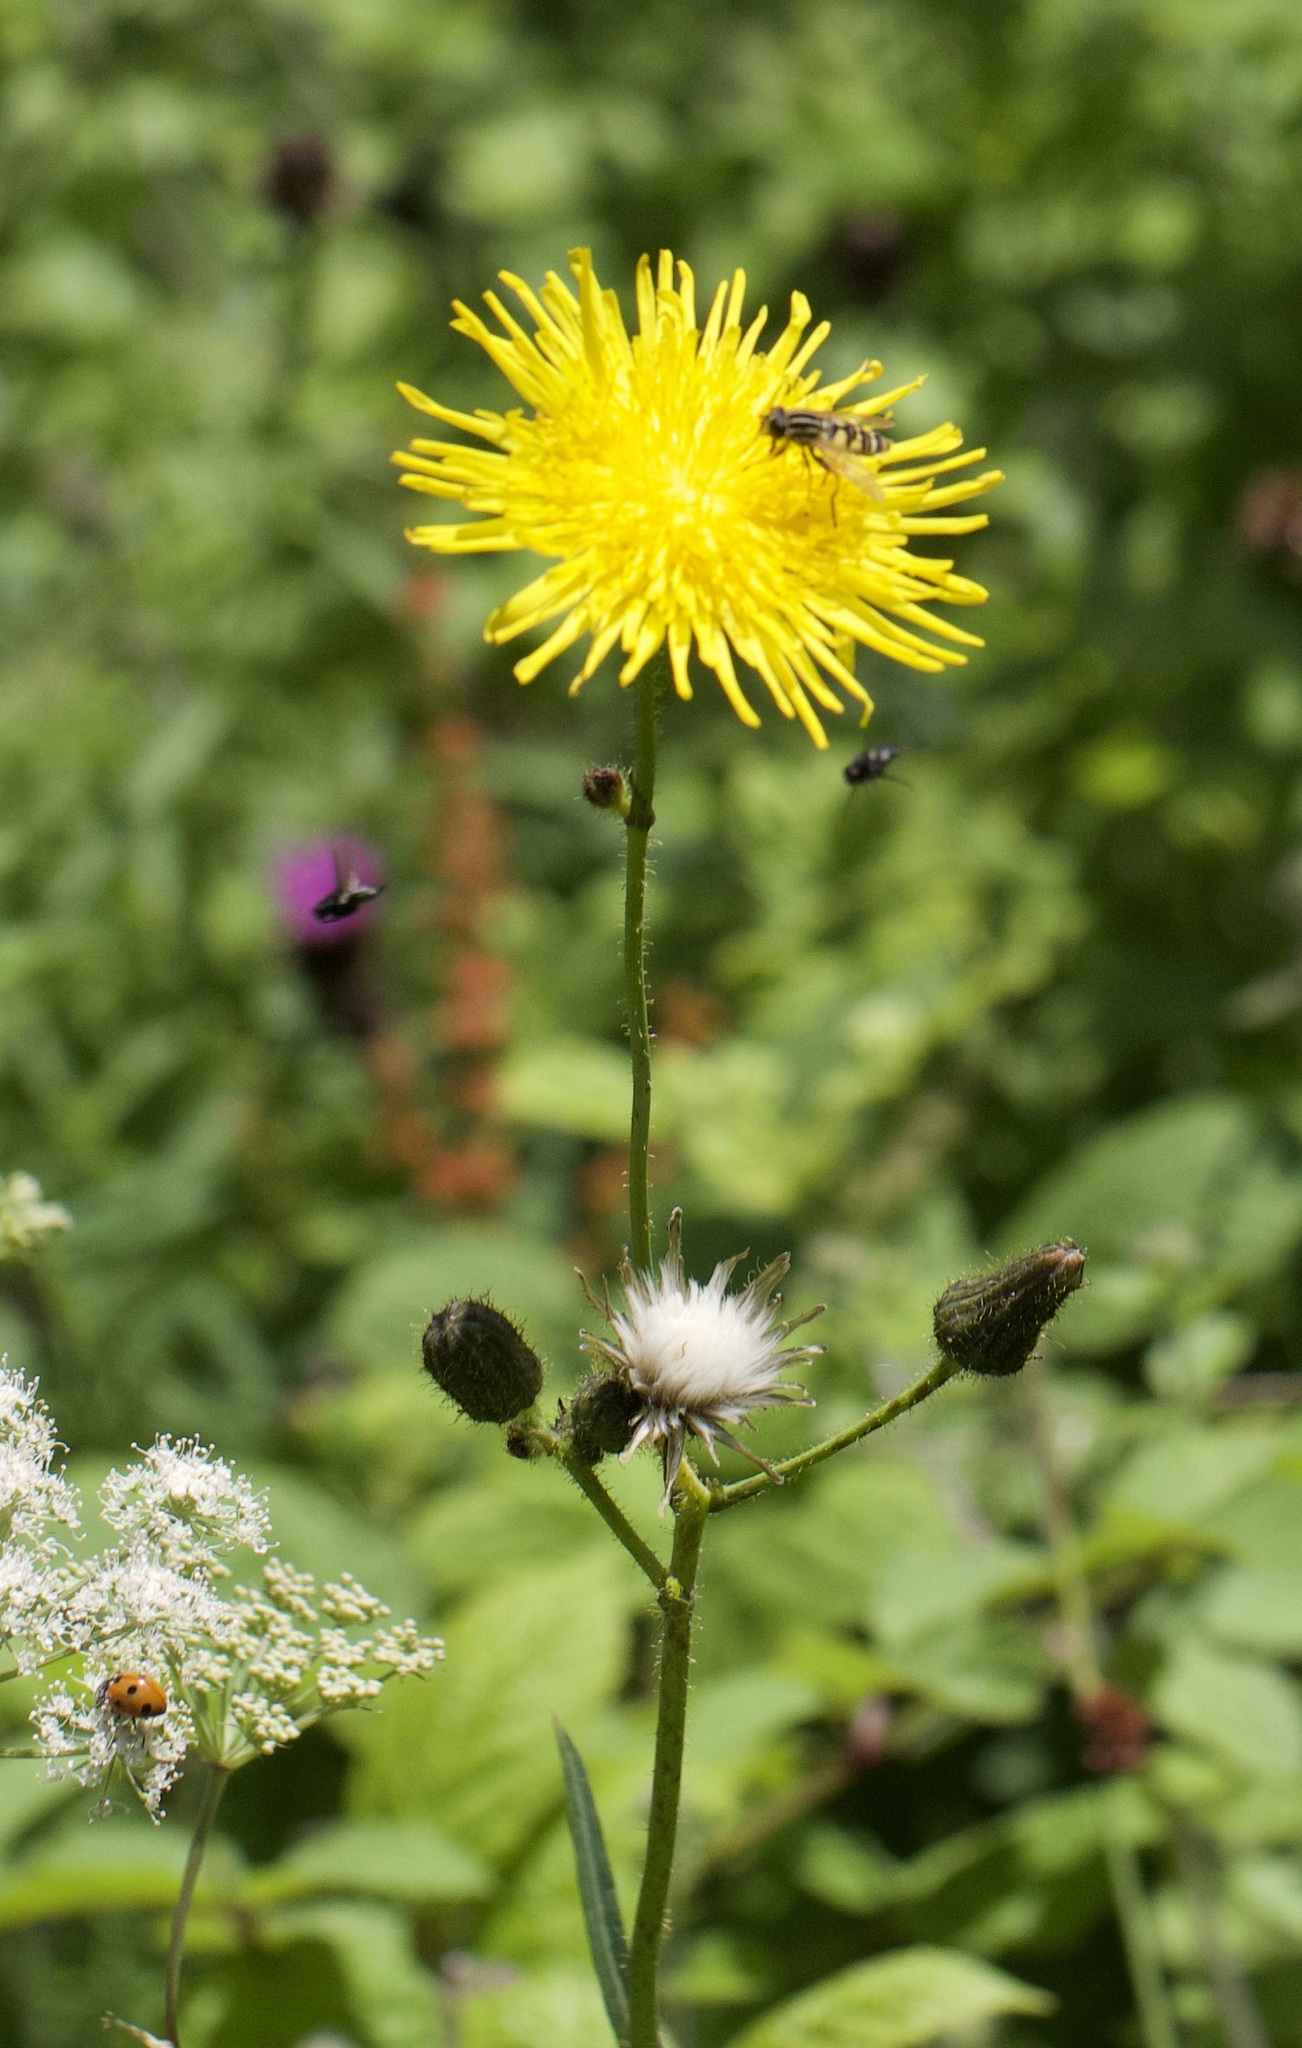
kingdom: Plantae
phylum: Tracheophyta
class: Magnoliopsida
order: Asterales
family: Asteraceae
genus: Sonchus
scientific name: Sonchus arvensis
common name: Perennial sow-thistle
